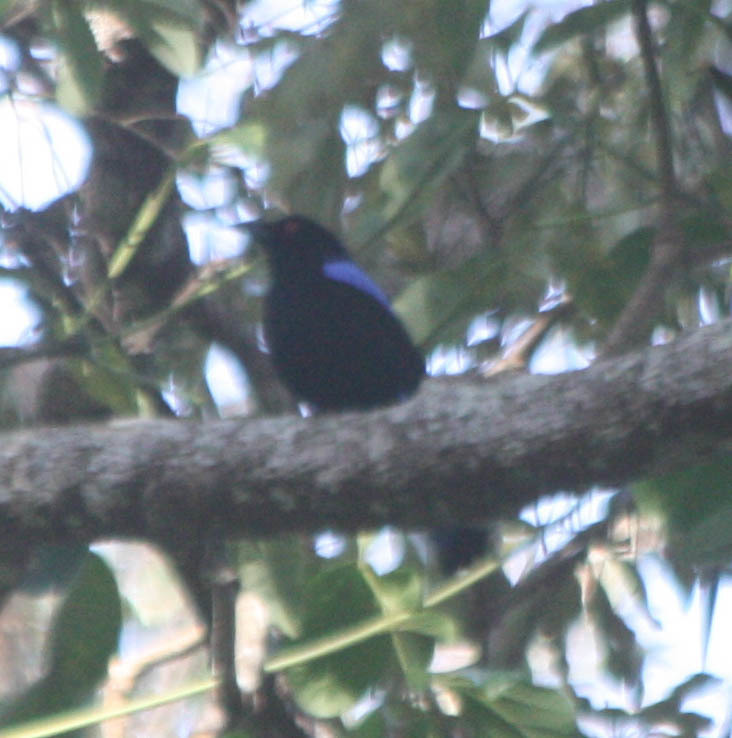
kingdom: Animalia
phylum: Chordata
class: Aves
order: Passeriformes
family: Irenidae
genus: Irena
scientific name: Irena puella
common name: Asian fairy-bluebird
